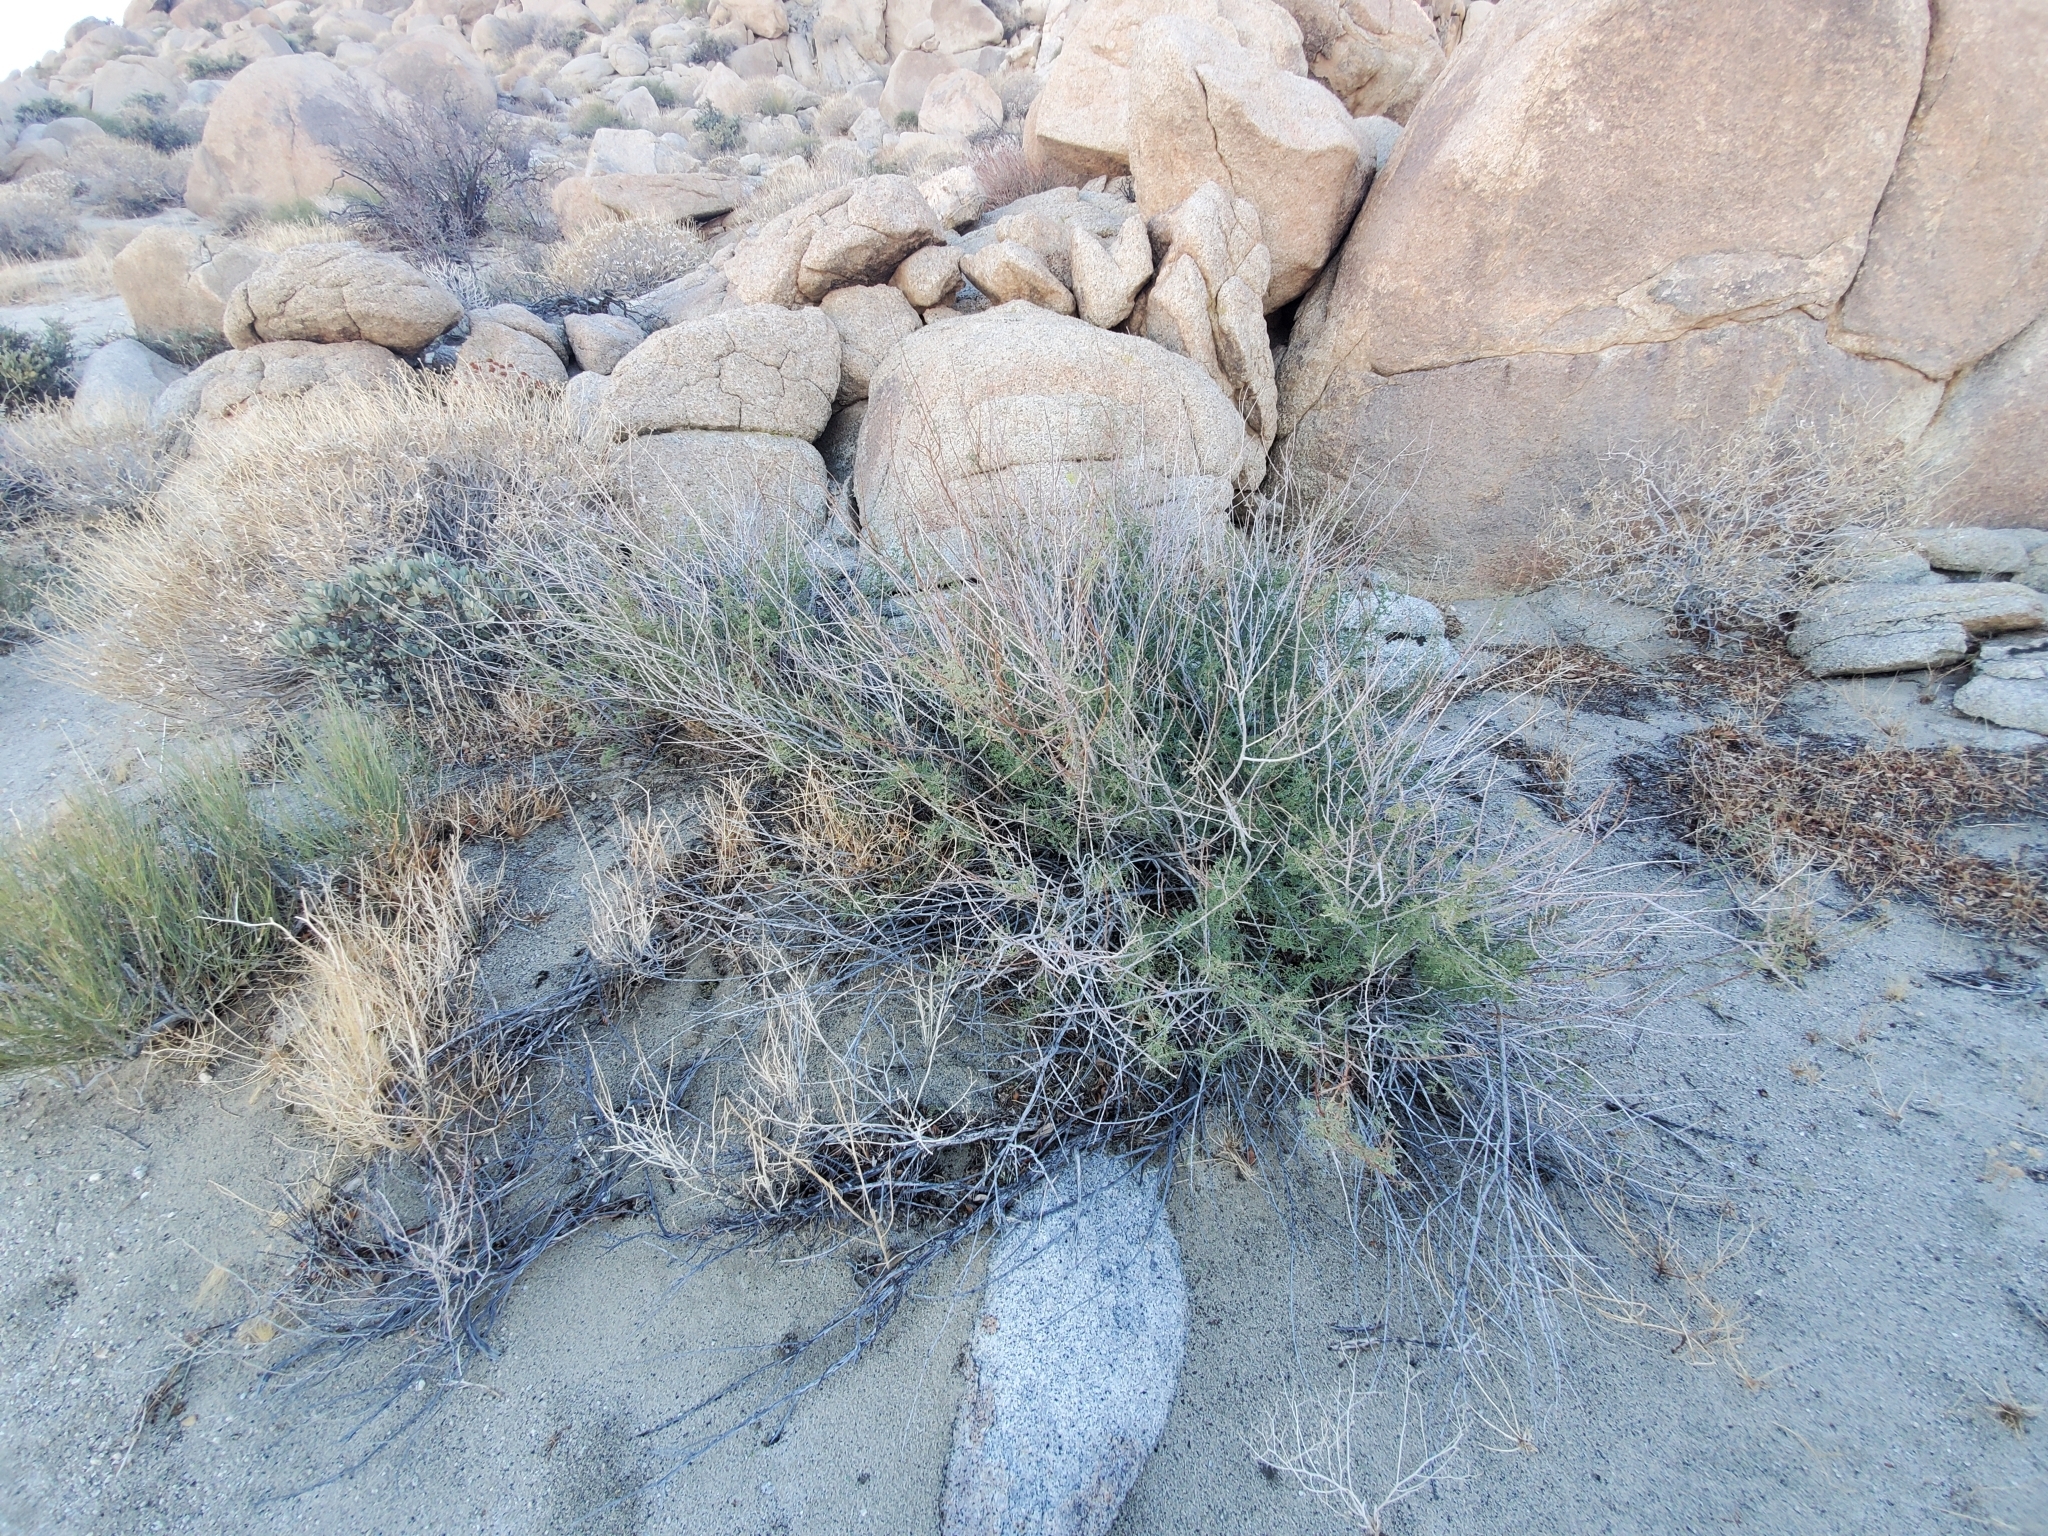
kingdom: Plantae
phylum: Tracheophyta
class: Magnoliopsida
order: Fabales
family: Fabaceae
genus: Senegalia
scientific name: Senegalia greggii
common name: Texas-mimosa
